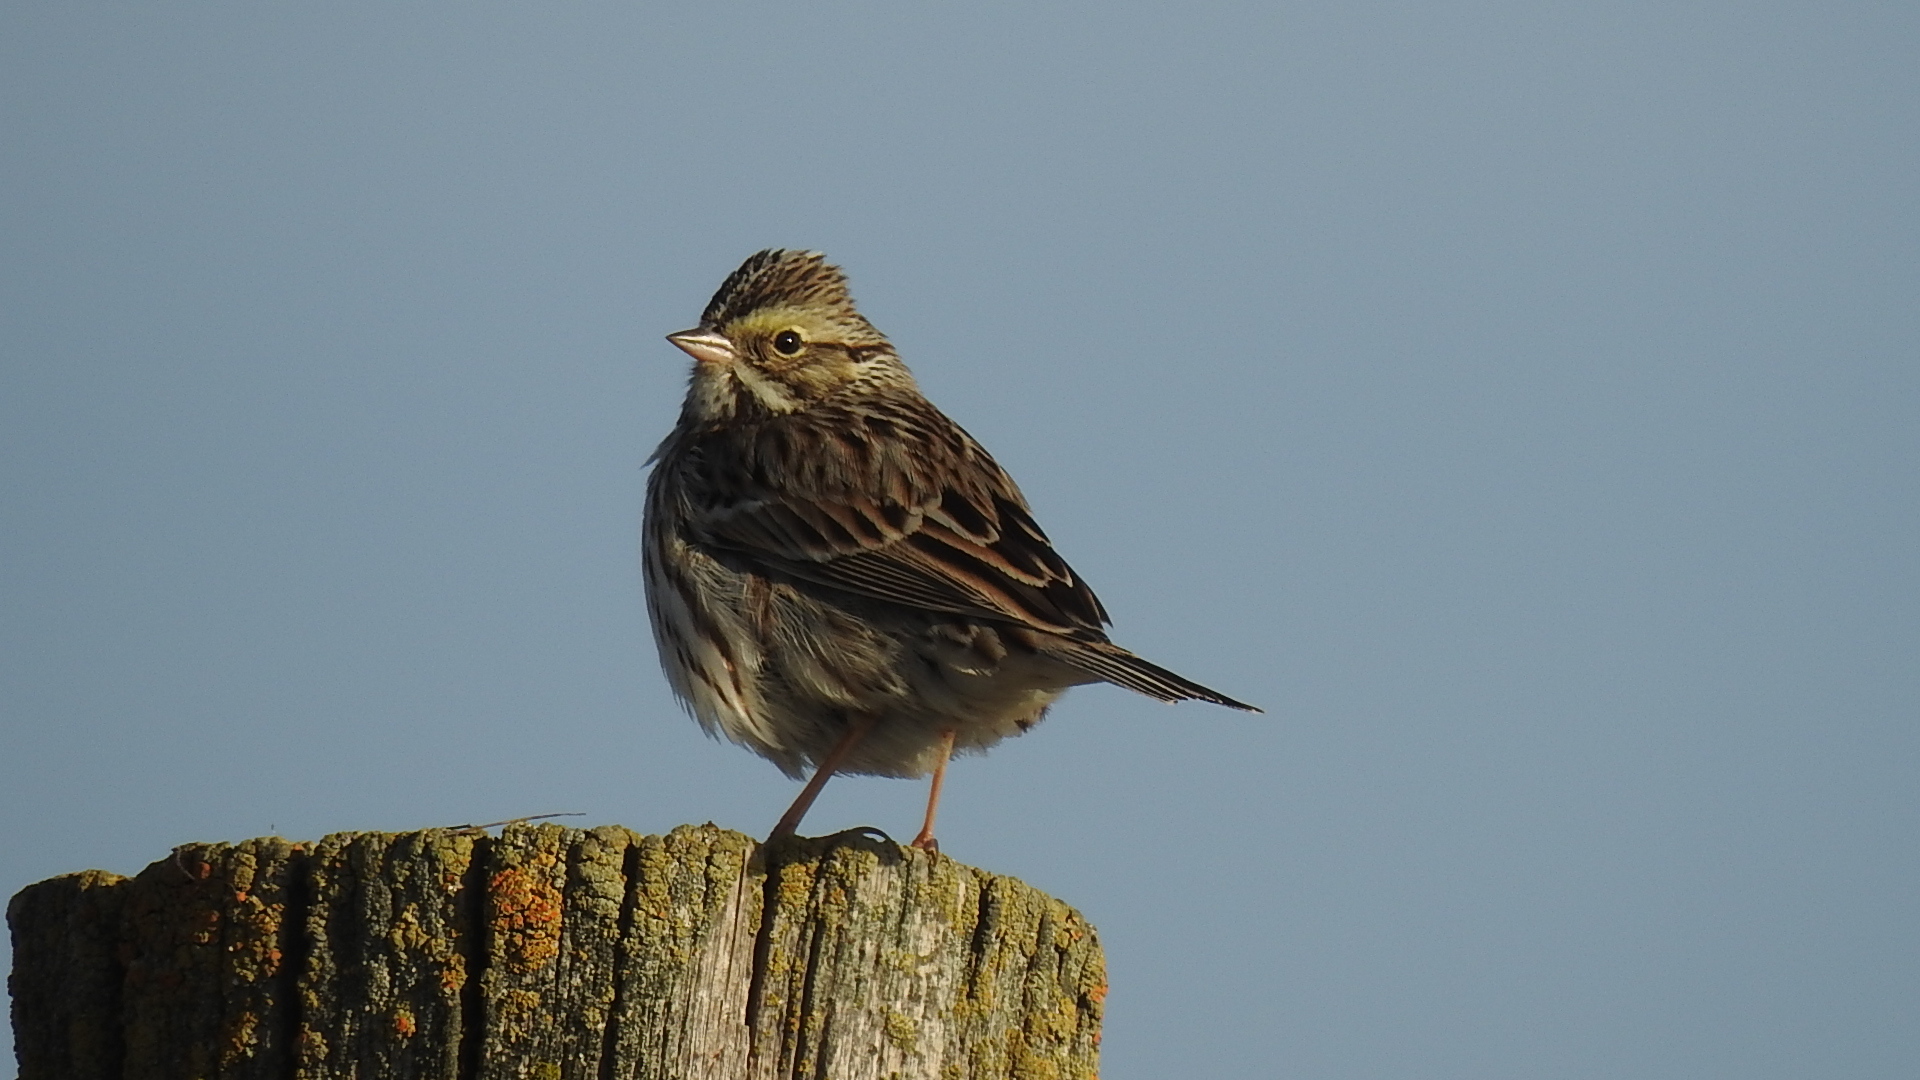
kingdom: Animalia
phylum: Chordata
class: Aves
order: Passeriformes
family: Passerellidae
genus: Passerculus
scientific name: Passerculus sandwichensis
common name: Savannah sparrow
